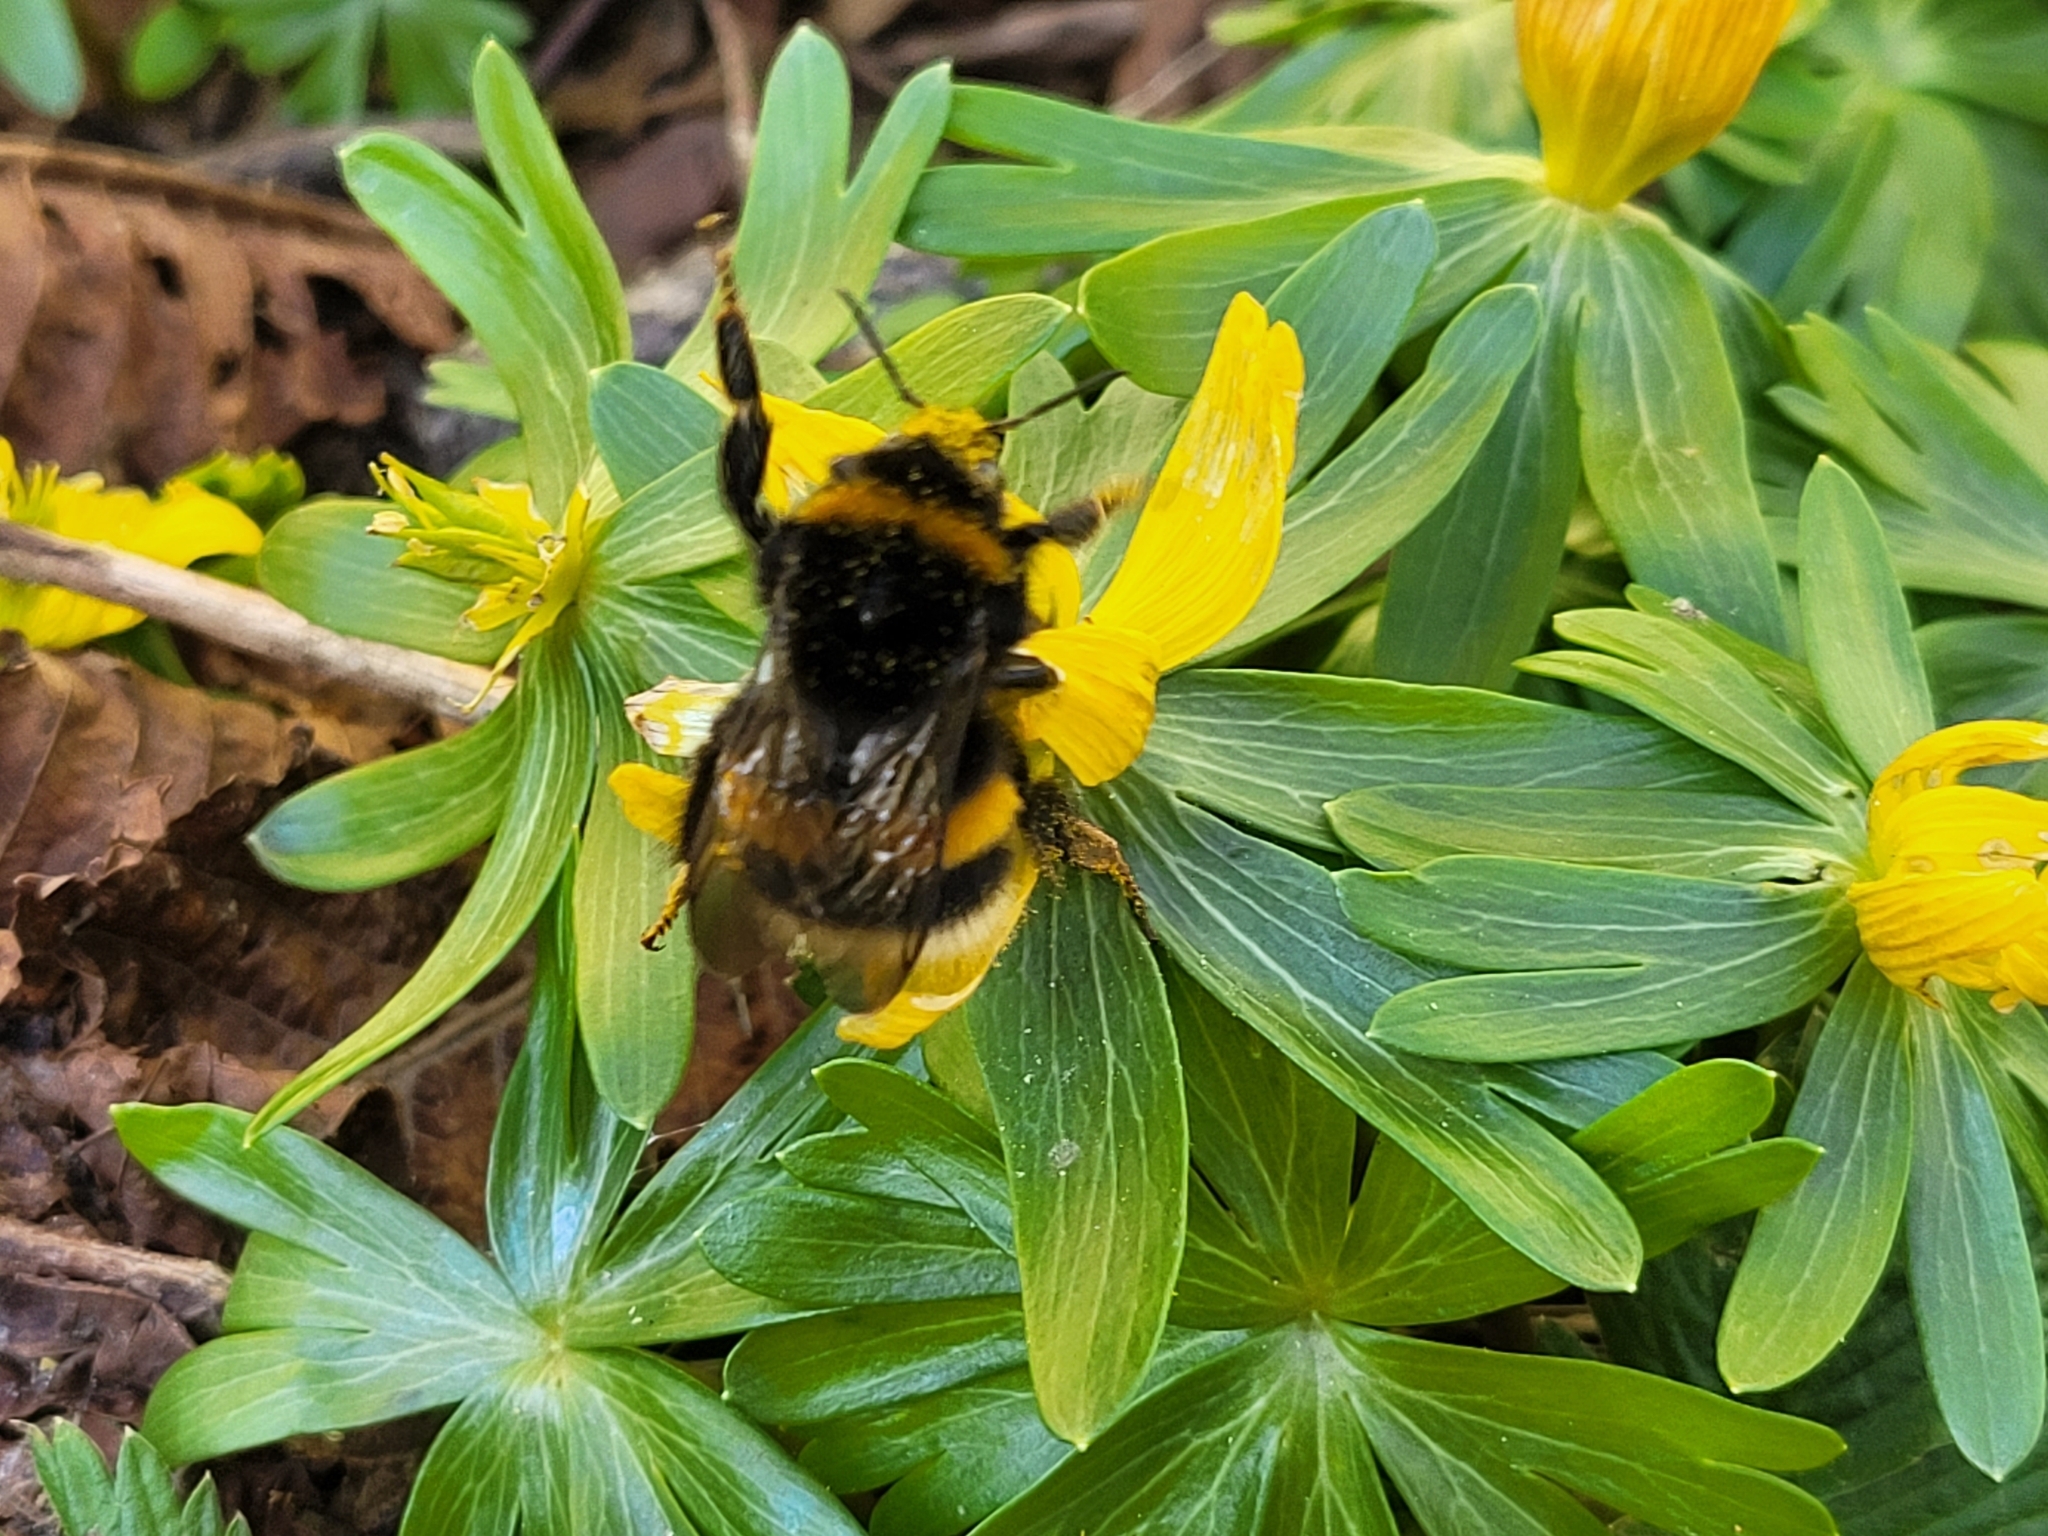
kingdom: Animalia
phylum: Arthropoda
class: Insecta
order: Hymenoptera
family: Apidae
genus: Bombus
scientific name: Bombus terrestris
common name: Buff-tailed bumblebee
